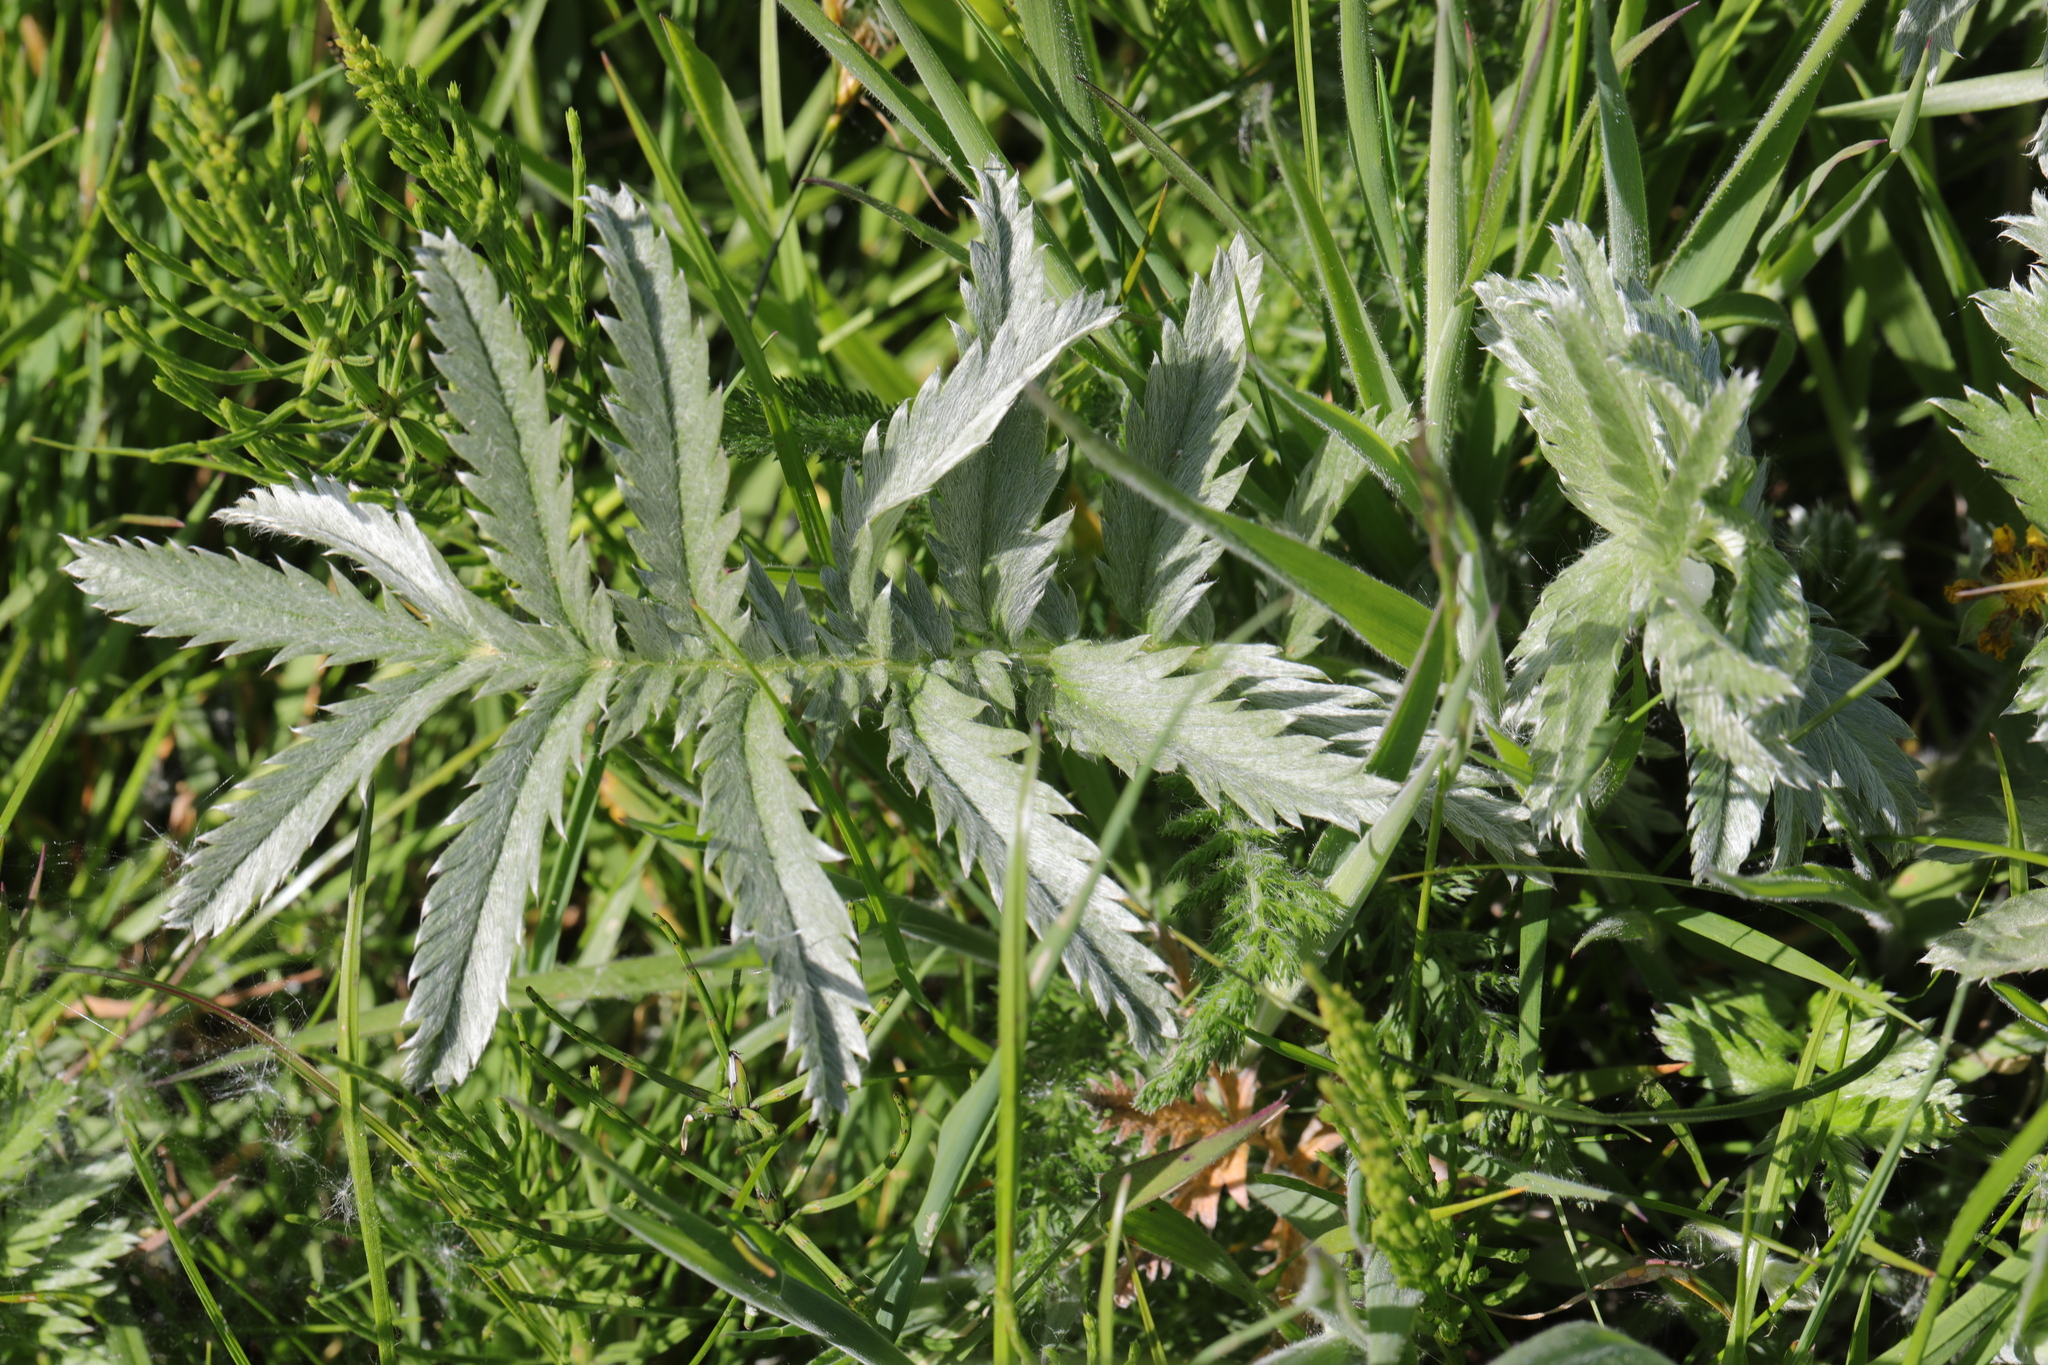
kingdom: Plantae
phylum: Tracheophyta
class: Magnoliopsida
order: Rosales
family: Rosaceae
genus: Argentina
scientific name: Argentina anserina
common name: Common silverweed
